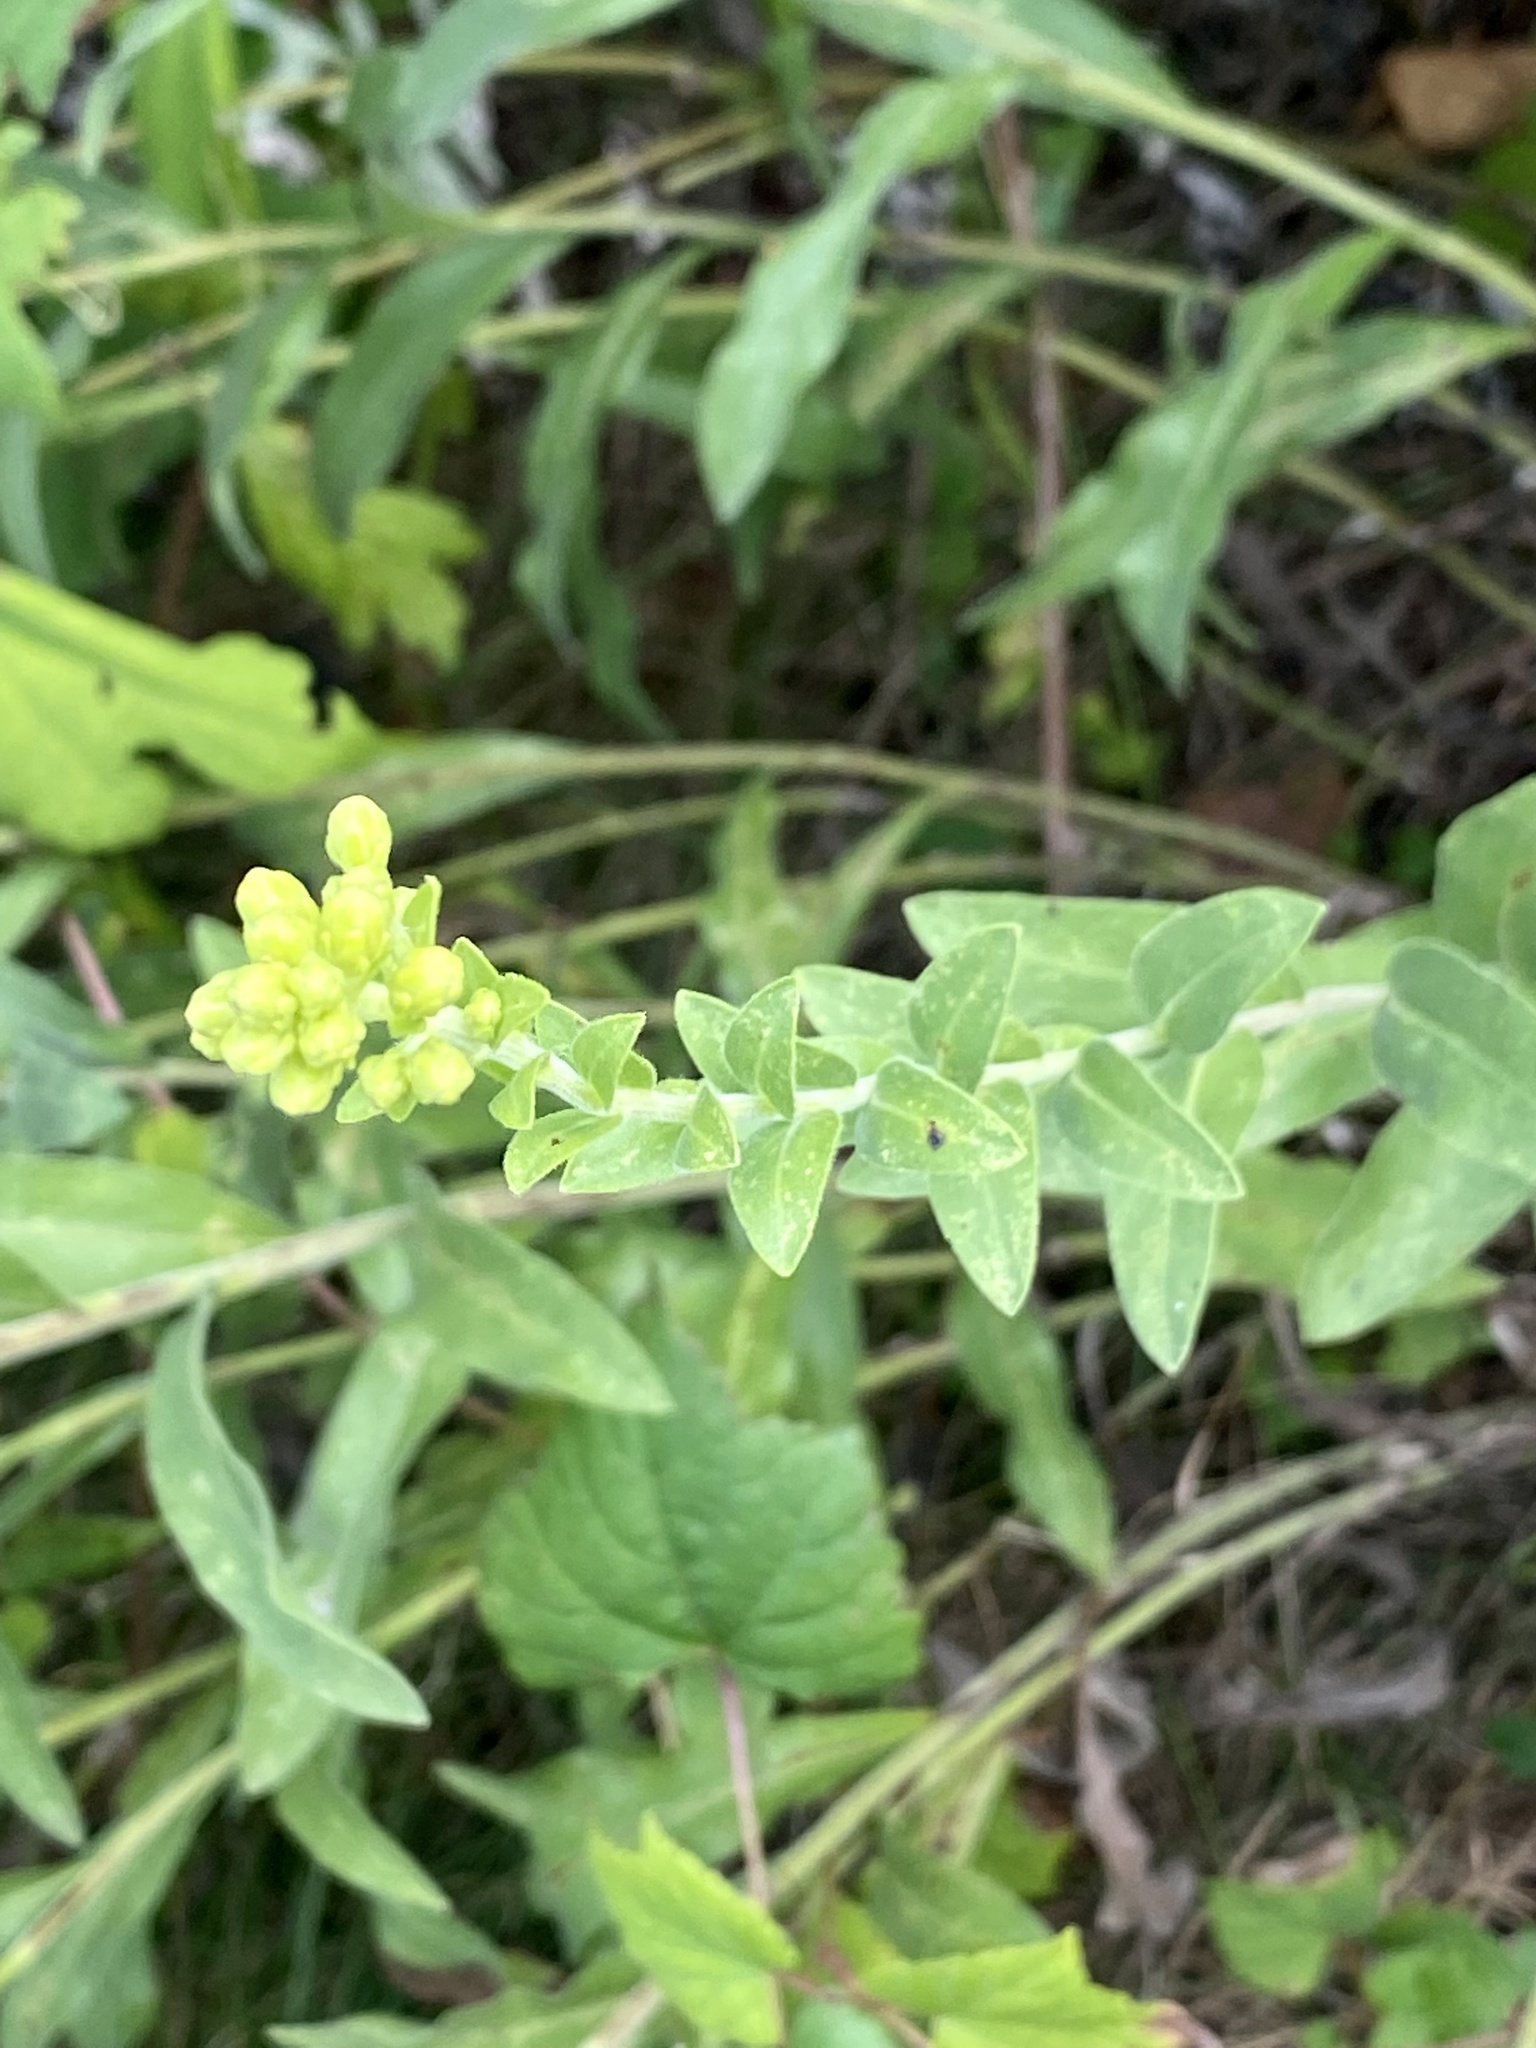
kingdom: Plantae
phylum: Tracheophyta
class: Magnoliopsida
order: Asterales
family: Asteraceae
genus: Solidago
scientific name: Solidago rigida
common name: Rigid goldenrod
